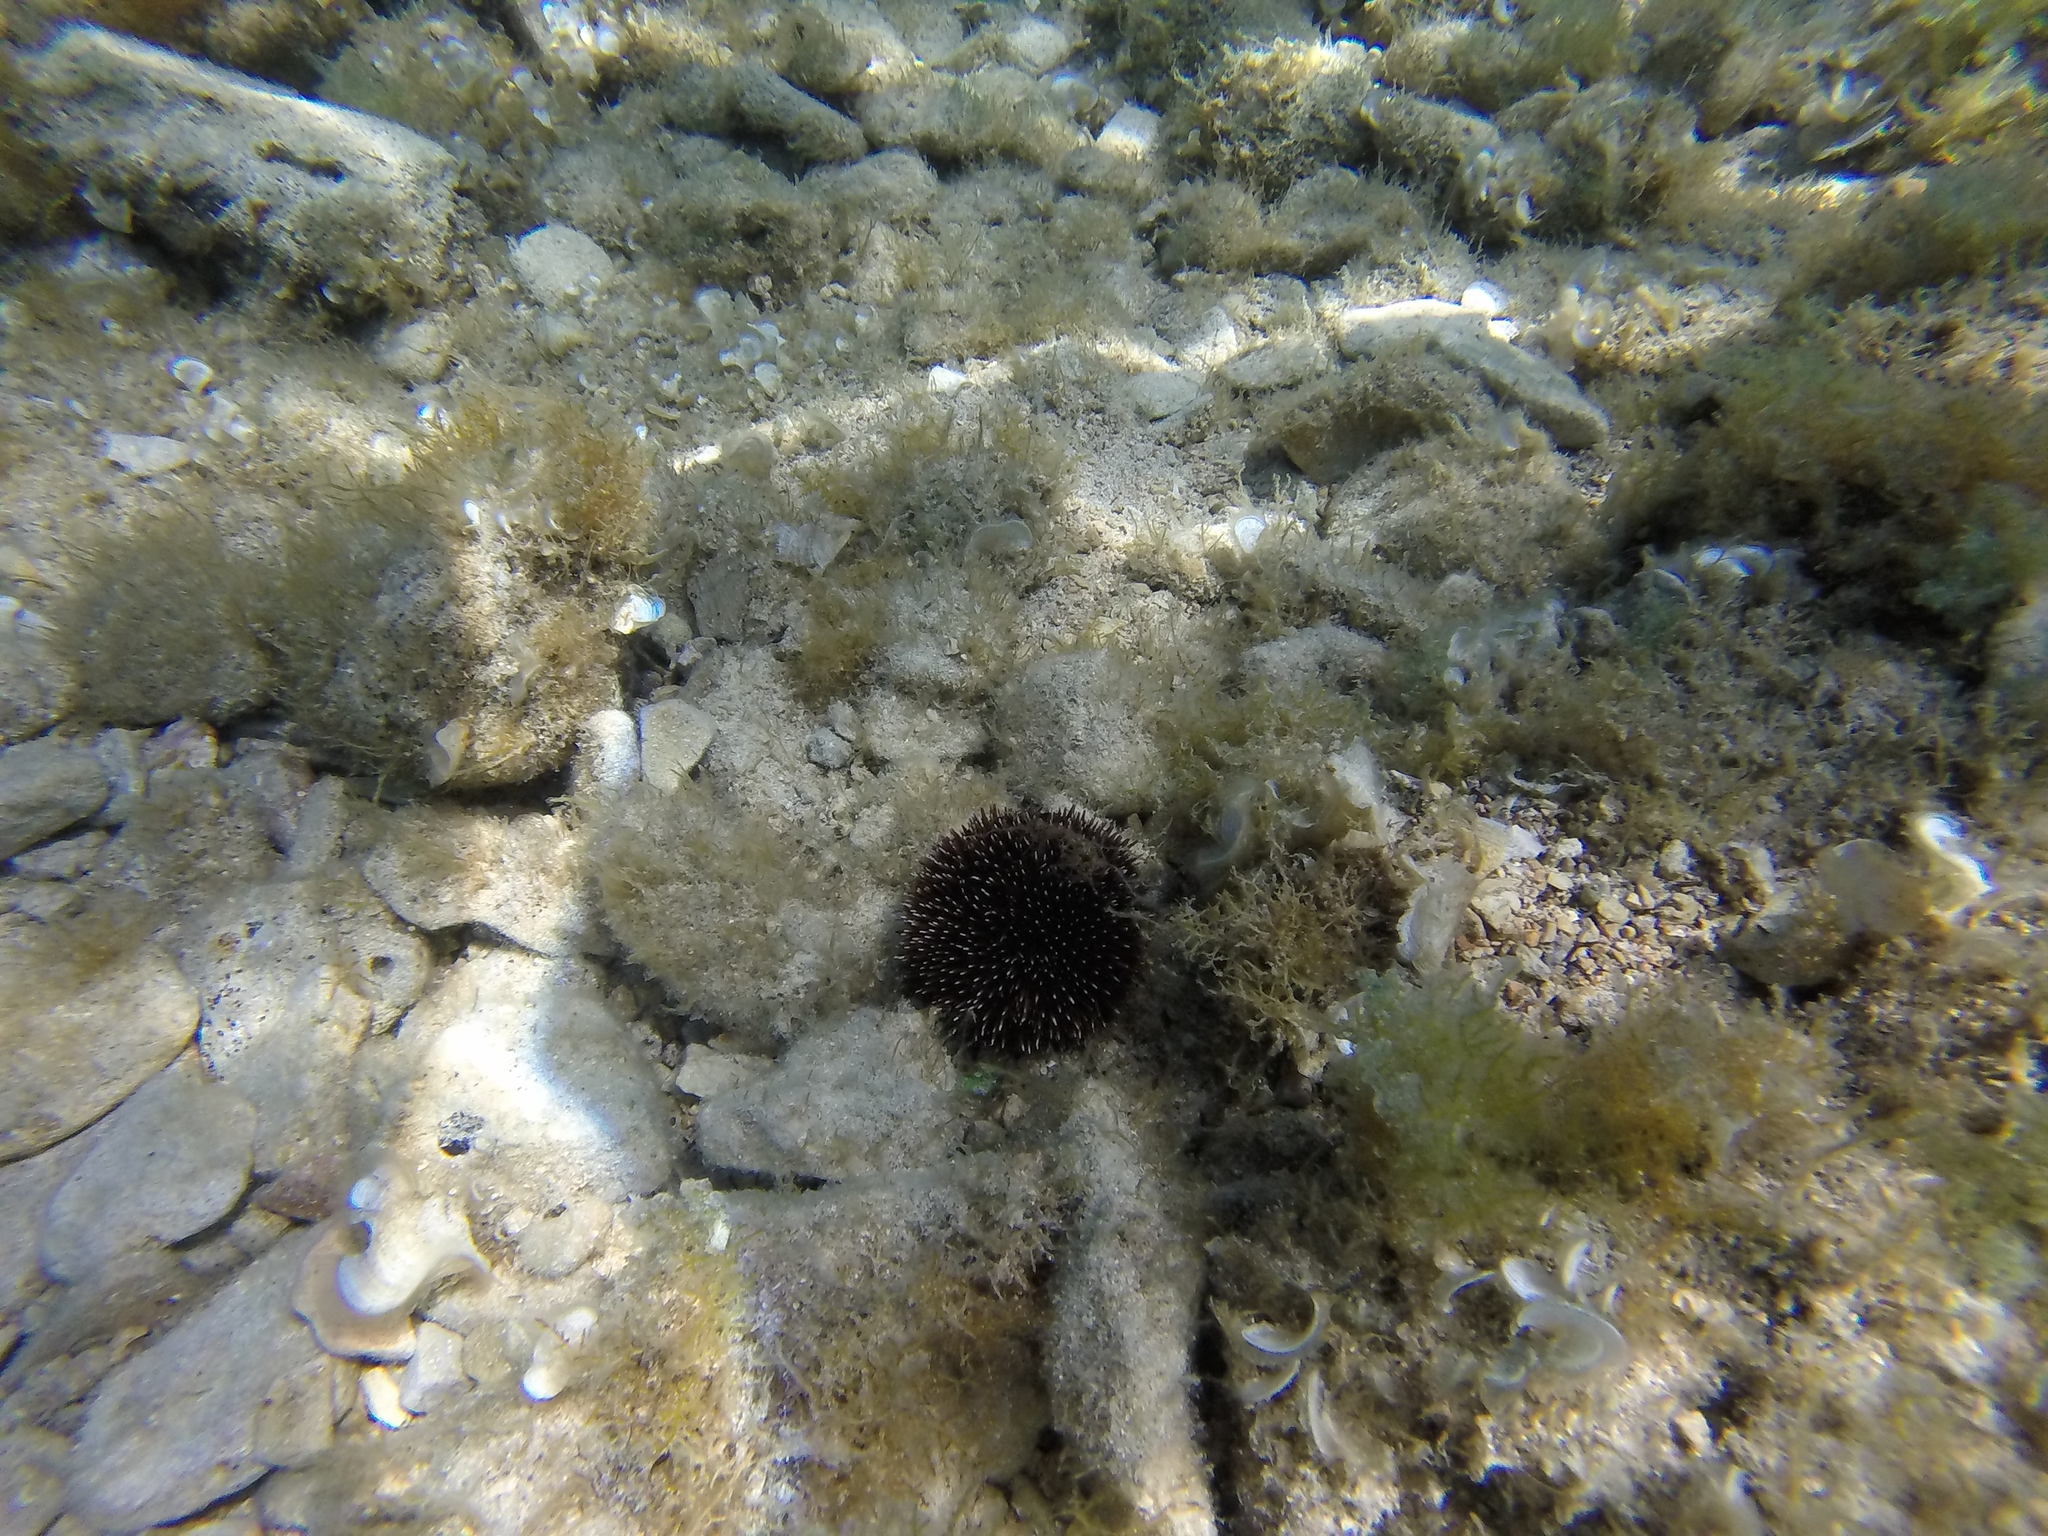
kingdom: Animalia
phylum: Echinodermata
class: Echinoidea
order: Camarodonta
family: Toxopneustidae
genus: Sphaerechinus
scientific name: Sphaerechinus granularis
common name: Violet sea urchin
